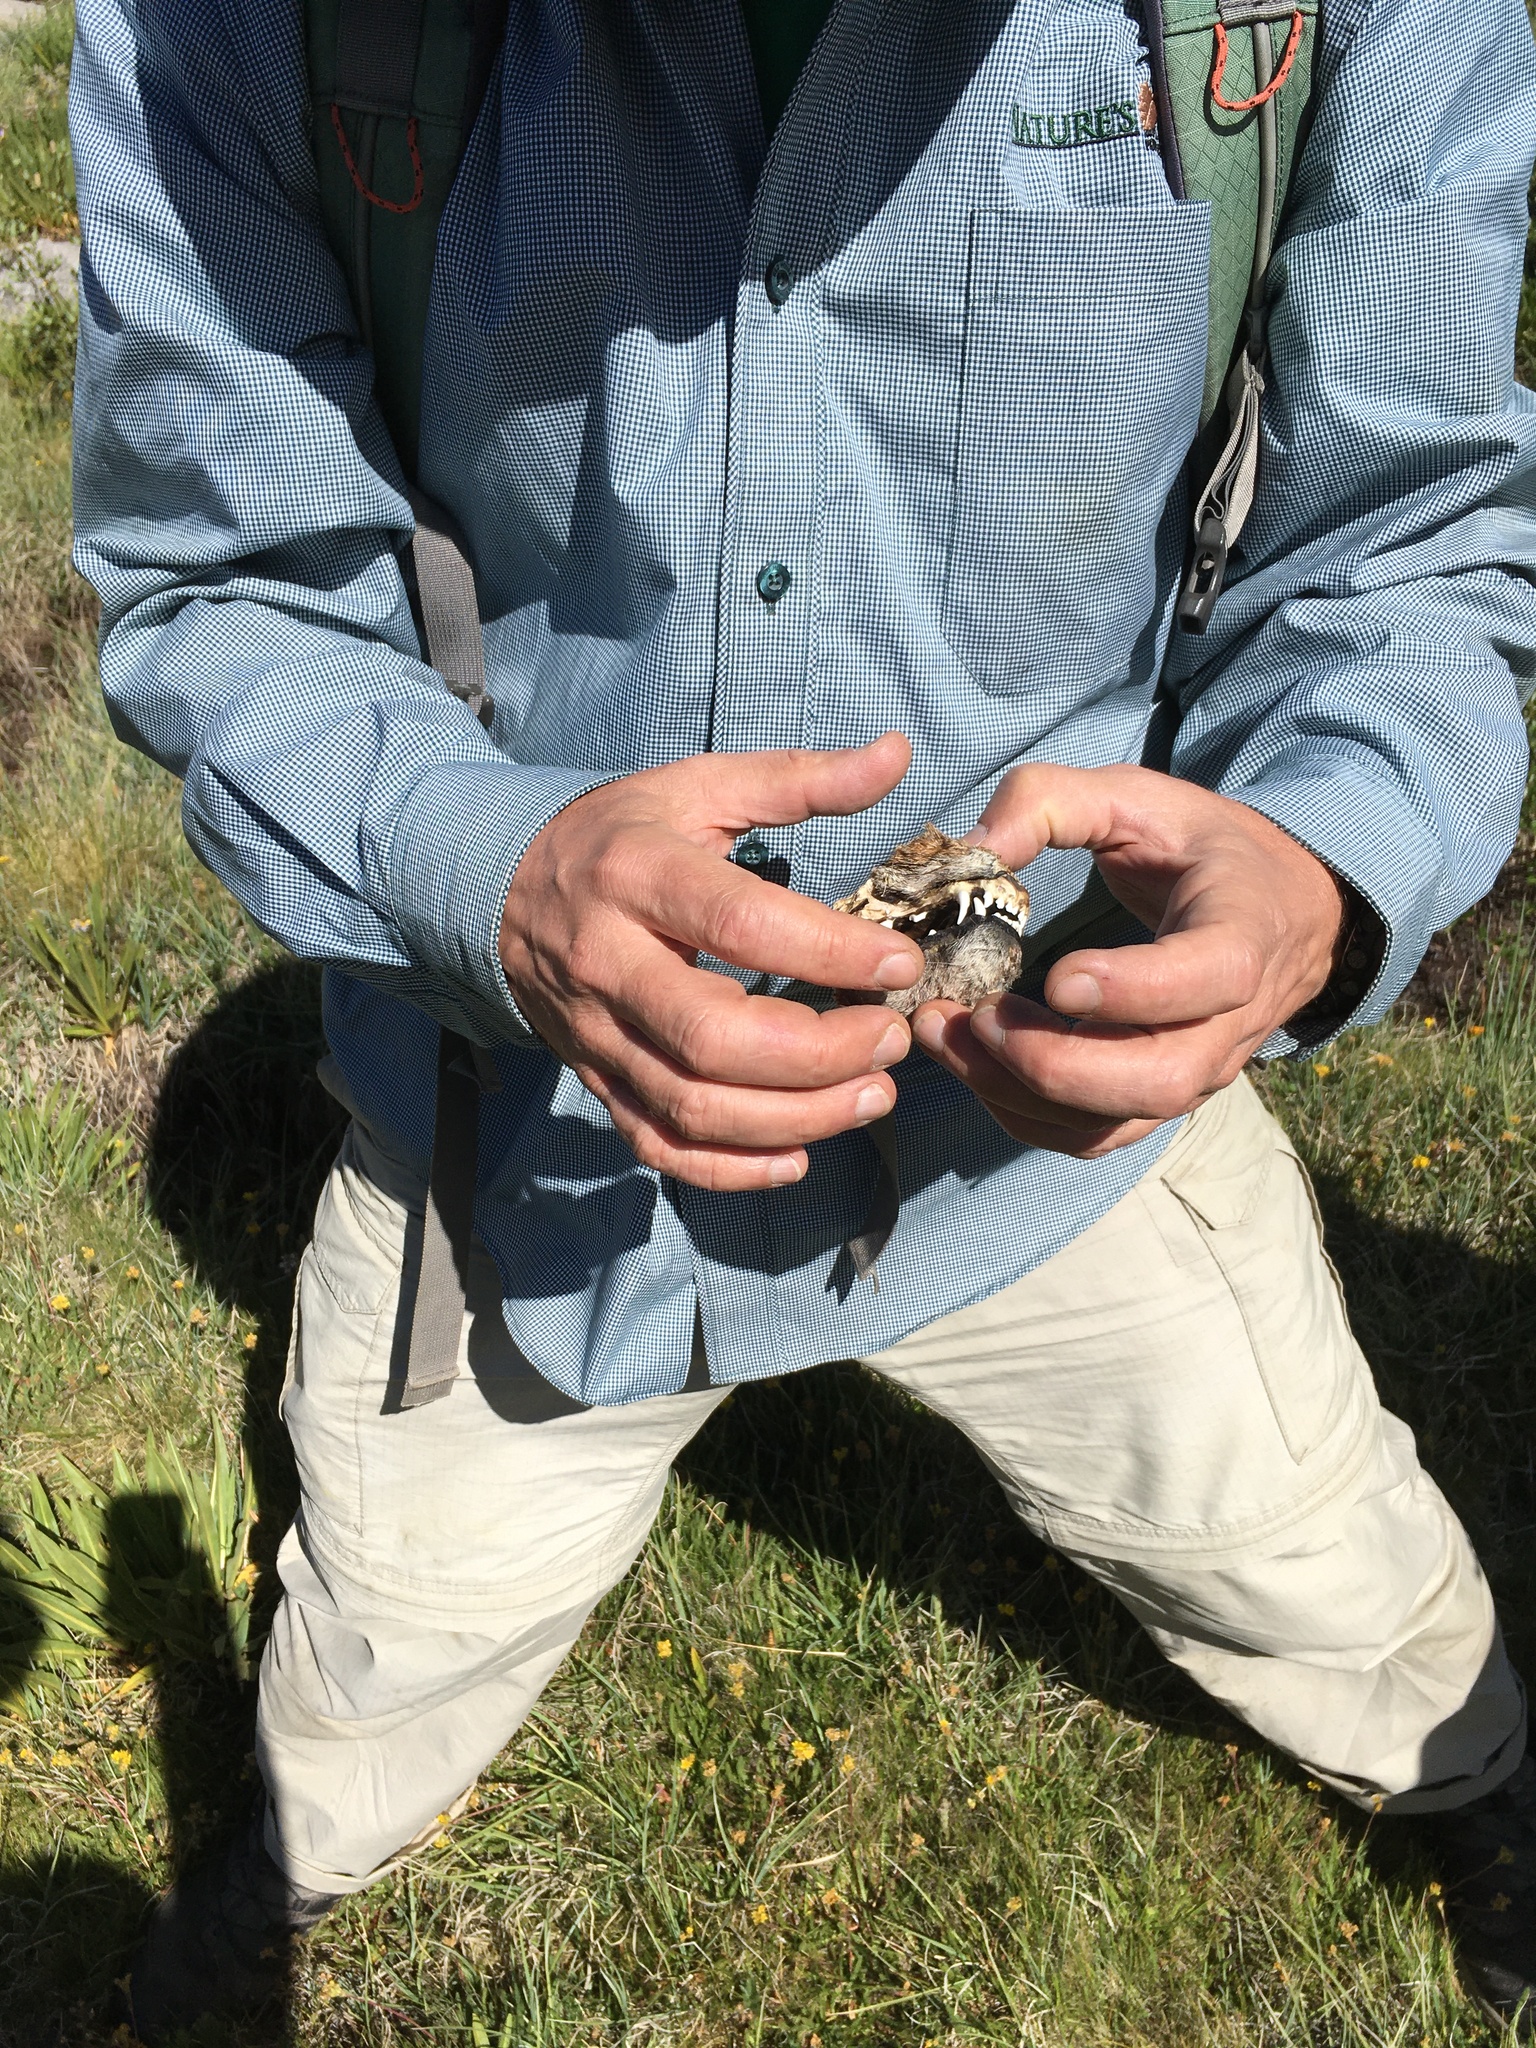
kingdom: Animalia
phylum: Chordata
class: Mammalia
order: Carnivora
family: Canidae
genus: Canis
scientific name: Canis latrans
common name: Coyote
